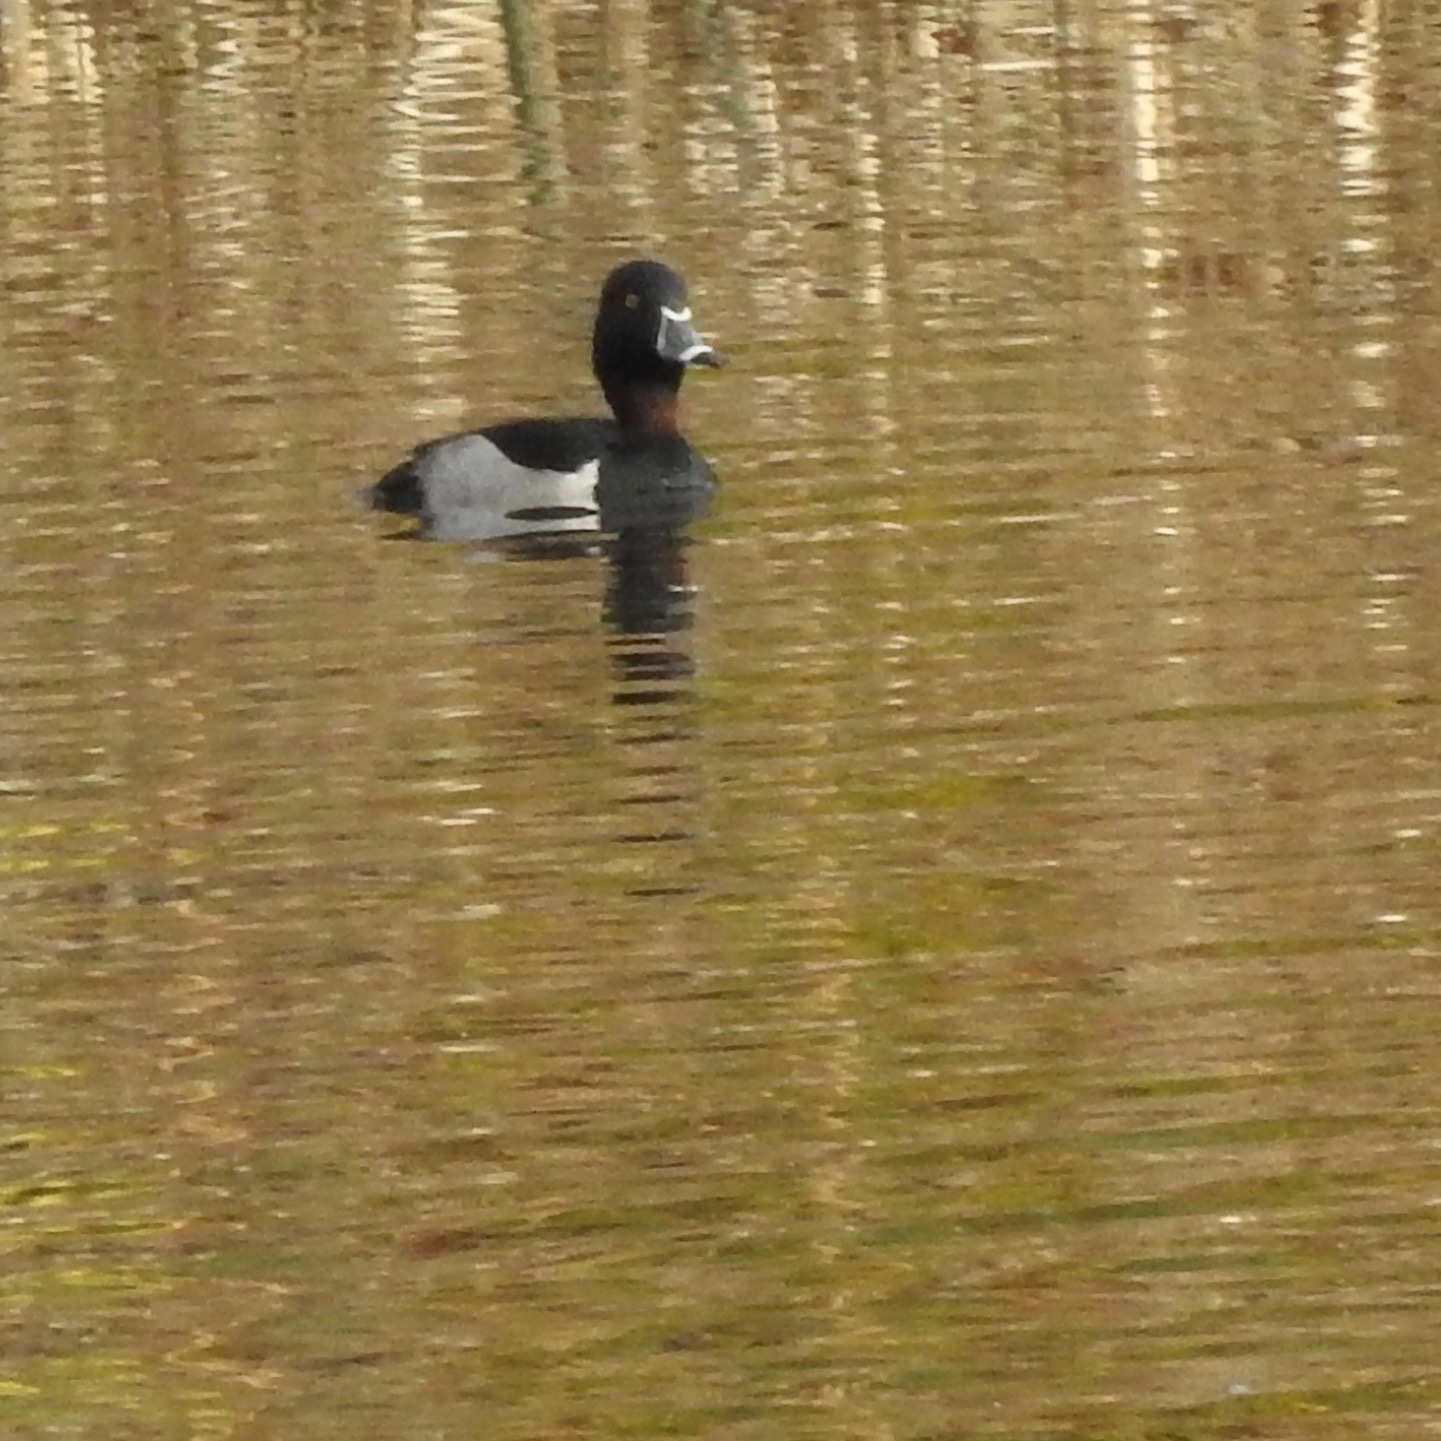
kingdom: Animalia
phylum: Chordata
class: Aves
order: Anseriformes
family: Anatidae
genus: Aythya
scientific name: Aythya collaris
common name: Ring-necked duck
